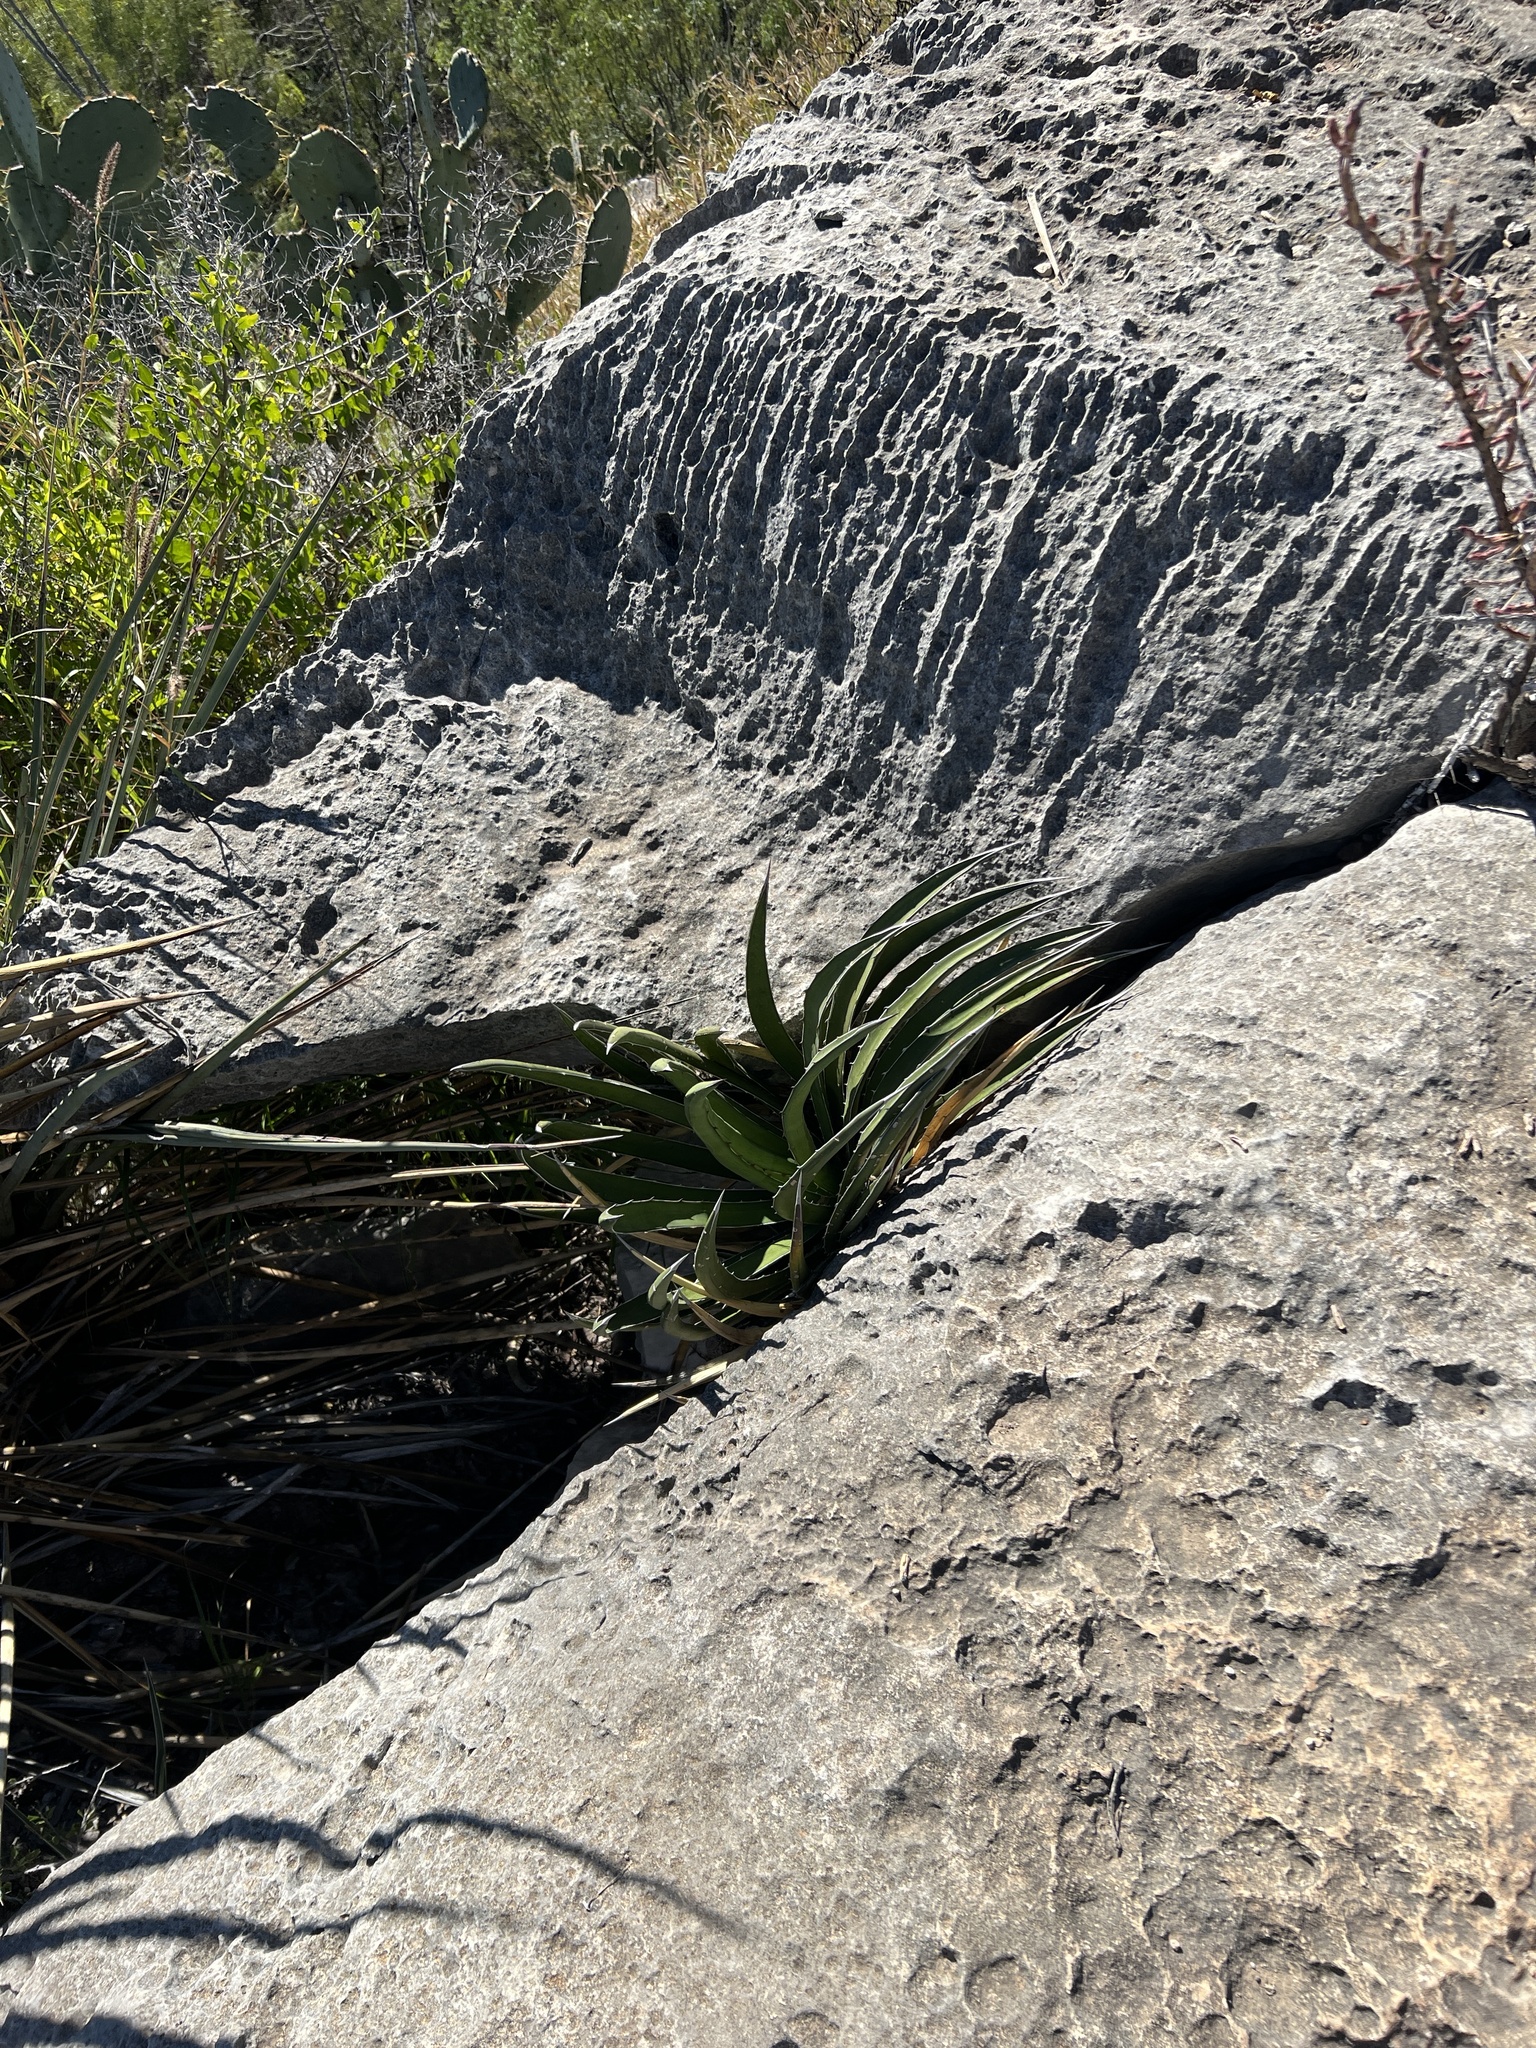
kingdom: Plantae
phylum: Tracheophyta
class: Liliopsida
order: Asparagales
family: Asparagaceae
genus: Agave
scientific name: Agave lechuguilla
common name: Lecheguilla agave
